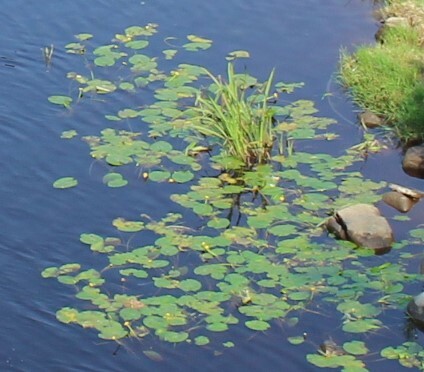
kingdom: Plantae
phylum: Tracheophyta
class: Magnoliopsida
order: Nymphaeales
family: Nymphaeaceae
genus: Nuphar
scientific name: Nuphar lutea
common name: Yellow water-lily
